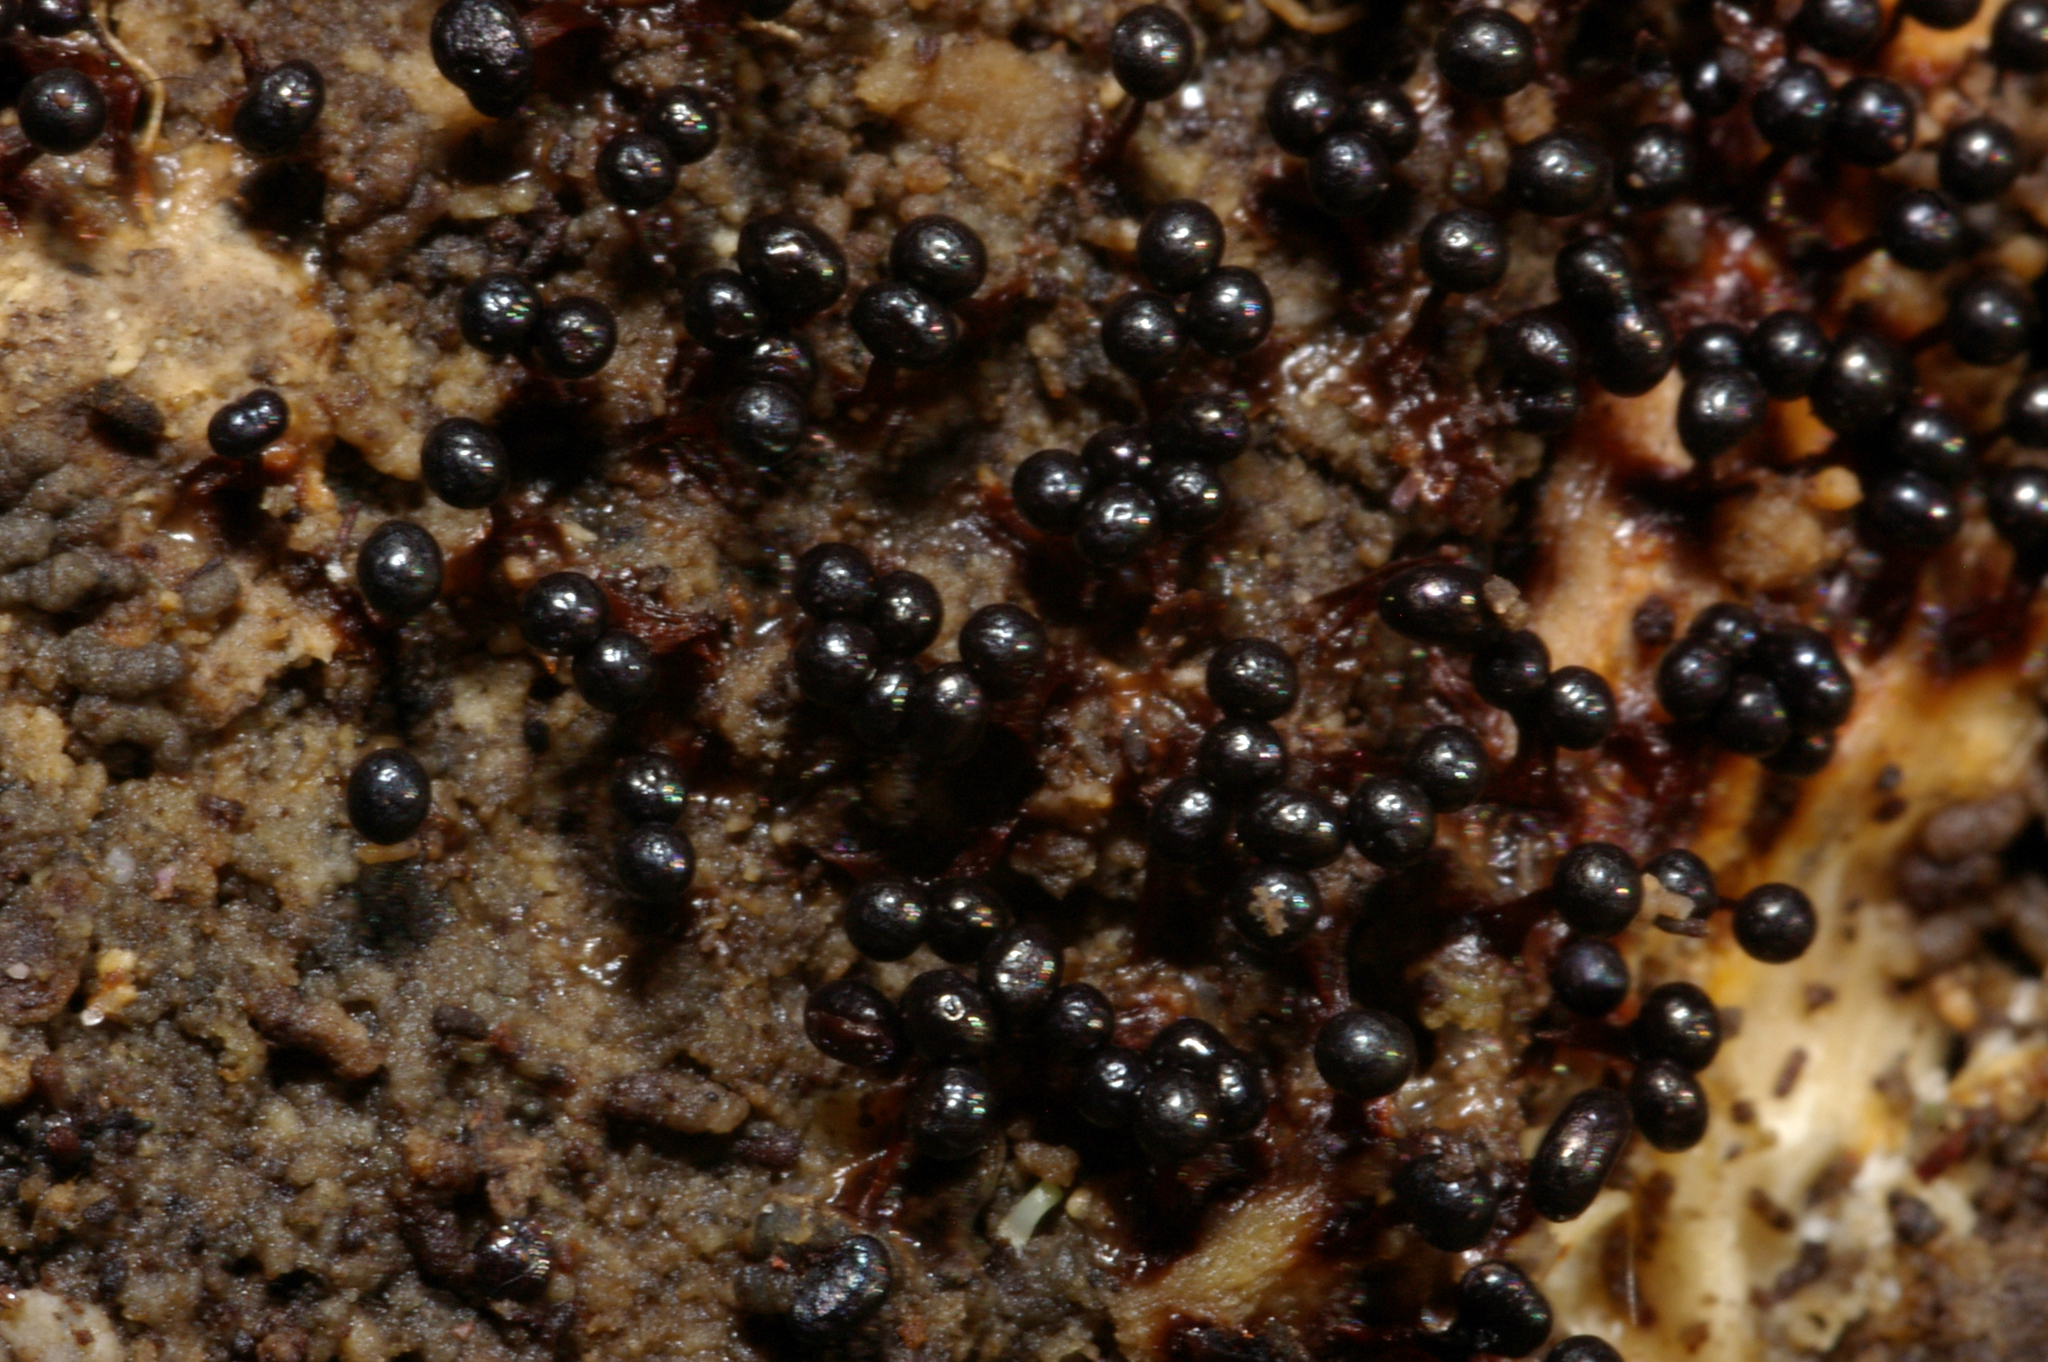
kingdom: Protozoa
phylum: Mycetozoa
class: Myxomycetes
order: Trichiales
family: Trichiaceae
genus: Metatrichia
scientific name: Metatrichia floriformis
